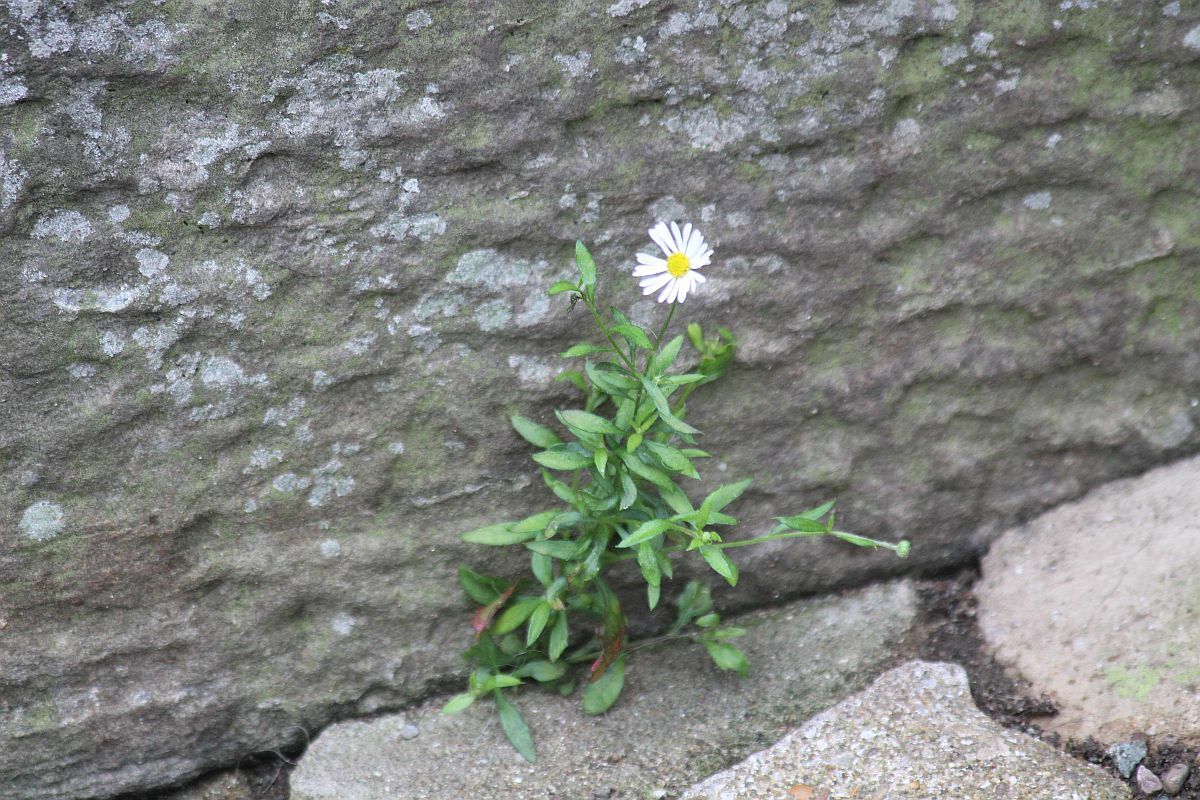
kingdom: Plantae
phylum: Tracheophyta
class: Magnoliopsida
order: Asterales
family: Asteraceae
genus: Erigeron
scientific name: Erigeron karvinskianus
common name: Mexican fleabane
